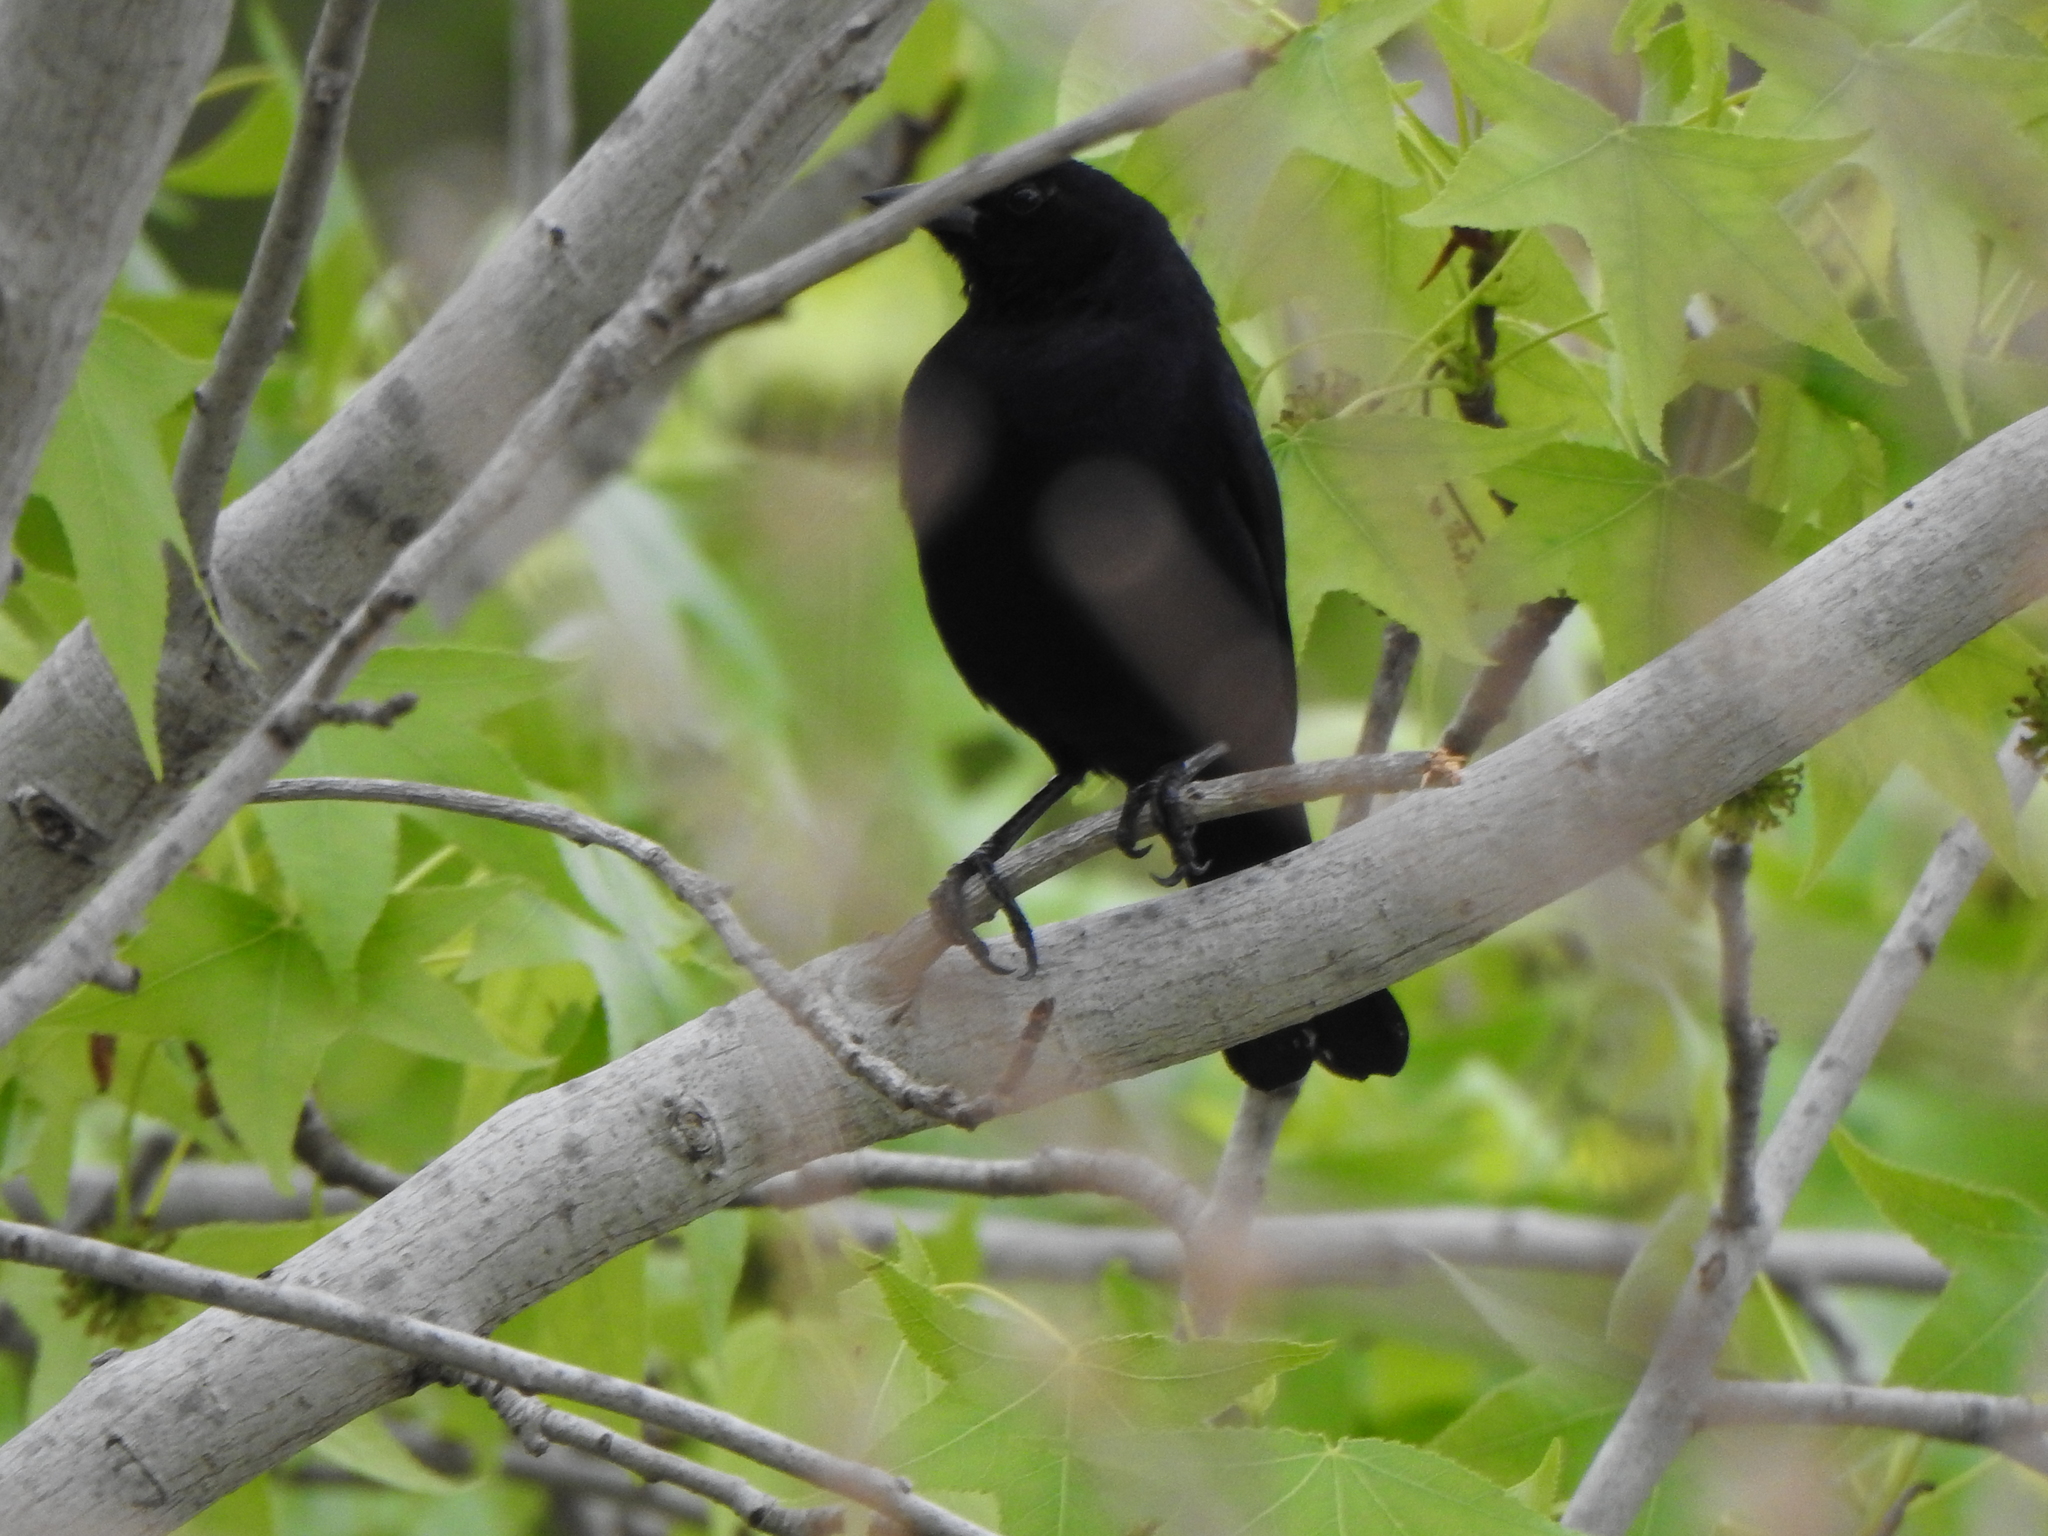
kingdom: Animalia
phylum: Chordata
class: Aves
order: Passeriformes
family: Icteridae
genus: Molothrus
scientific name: Molothrus bonariensis
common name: Shiny cowbird
